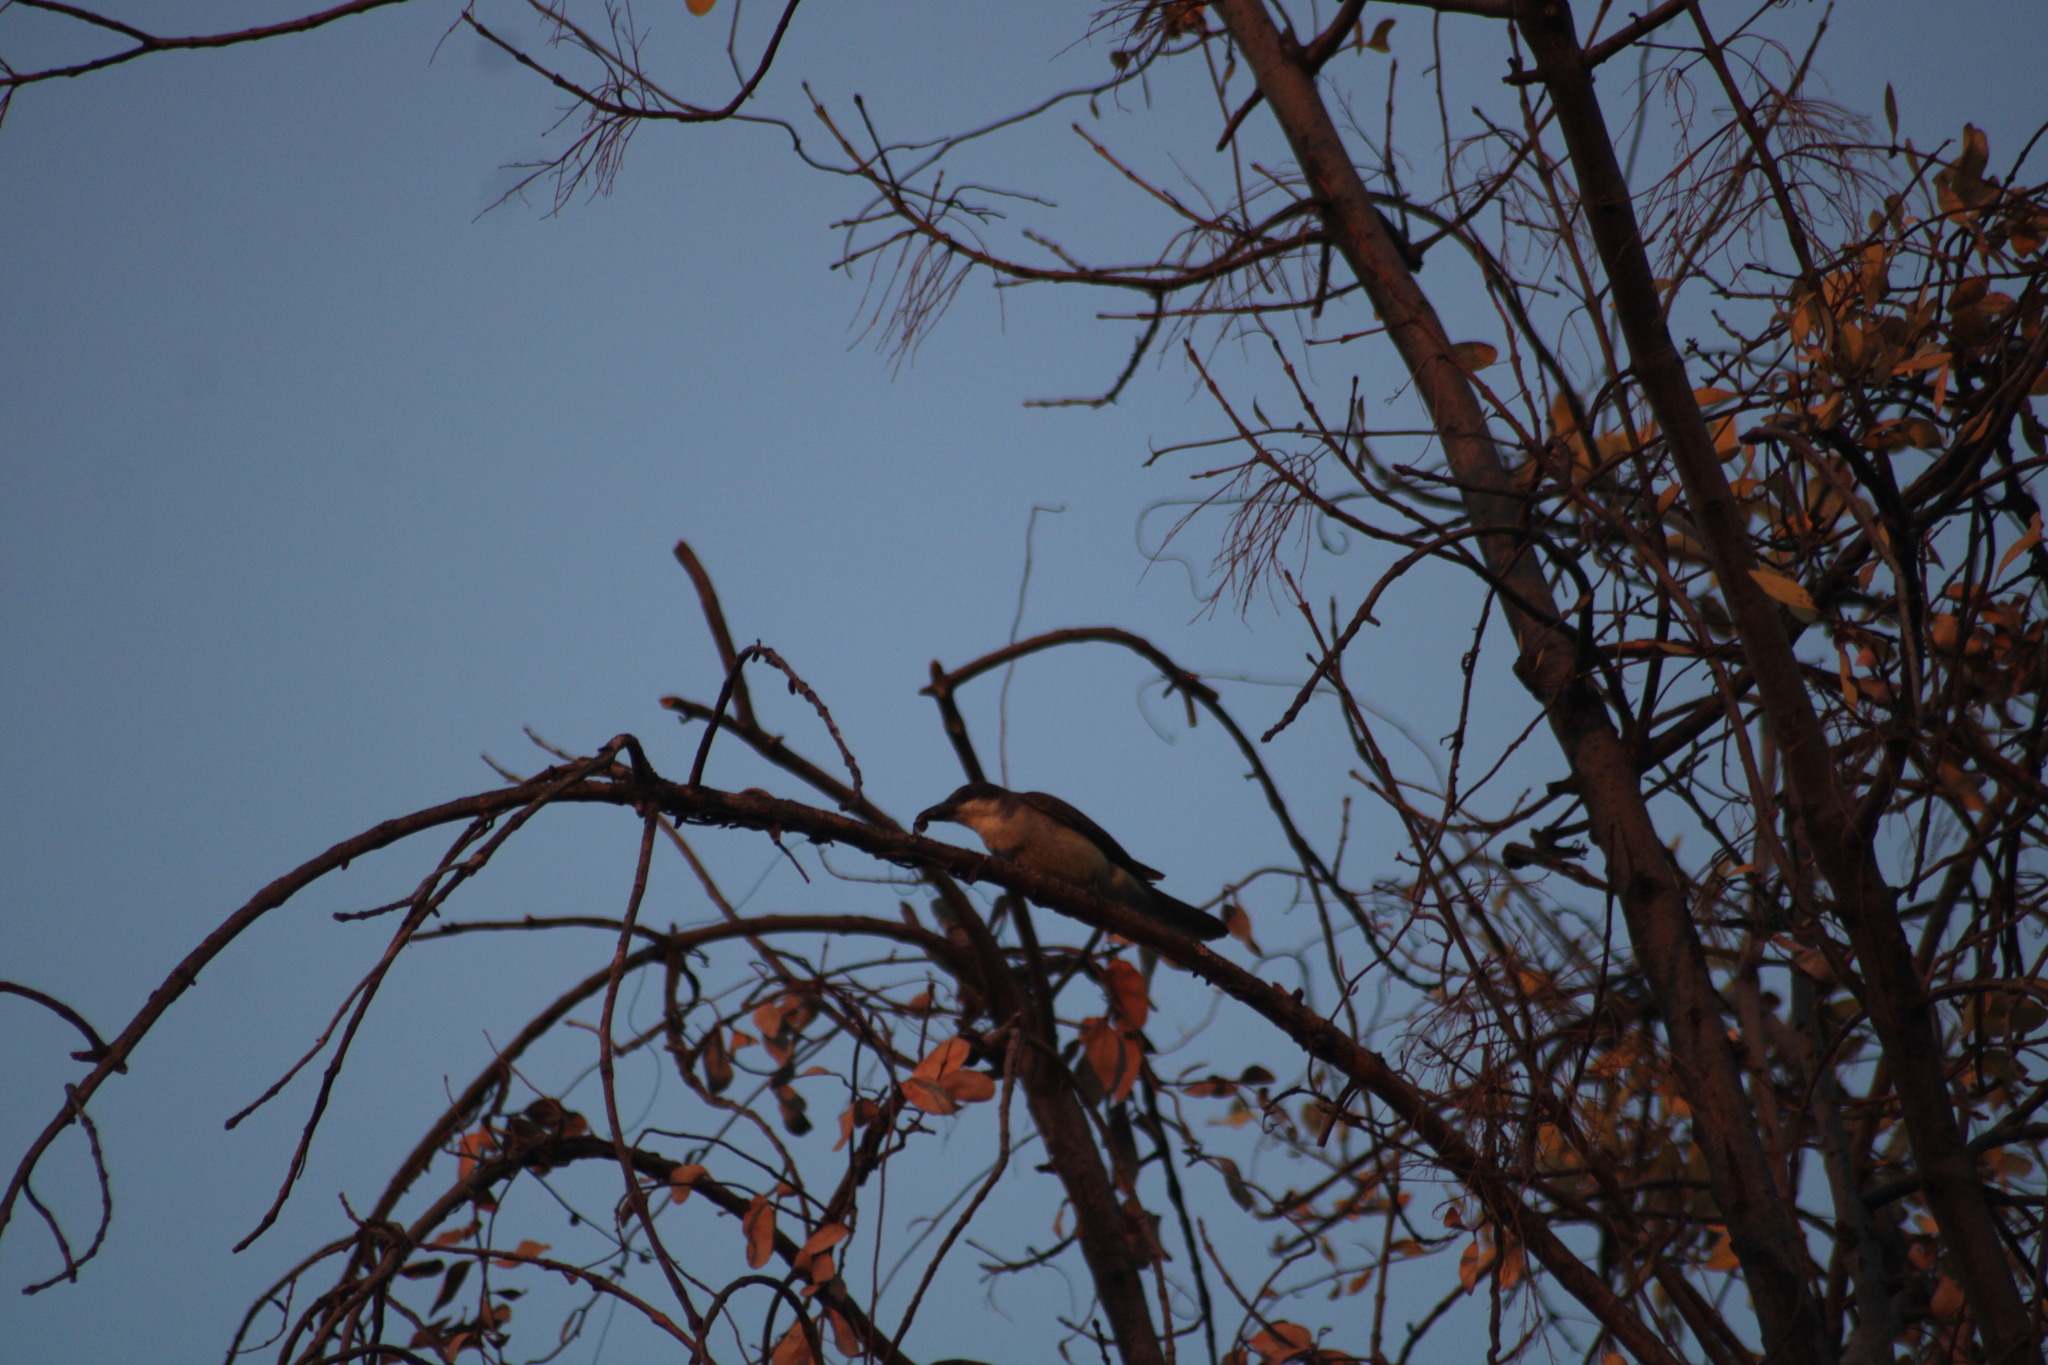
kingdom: Animalia
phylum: Chordata
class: Aves
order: Passeriformes
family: Tyrannidae
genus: Tyrannus
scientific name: Tyrannus crassirostris
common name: Thick-billed kingbird
